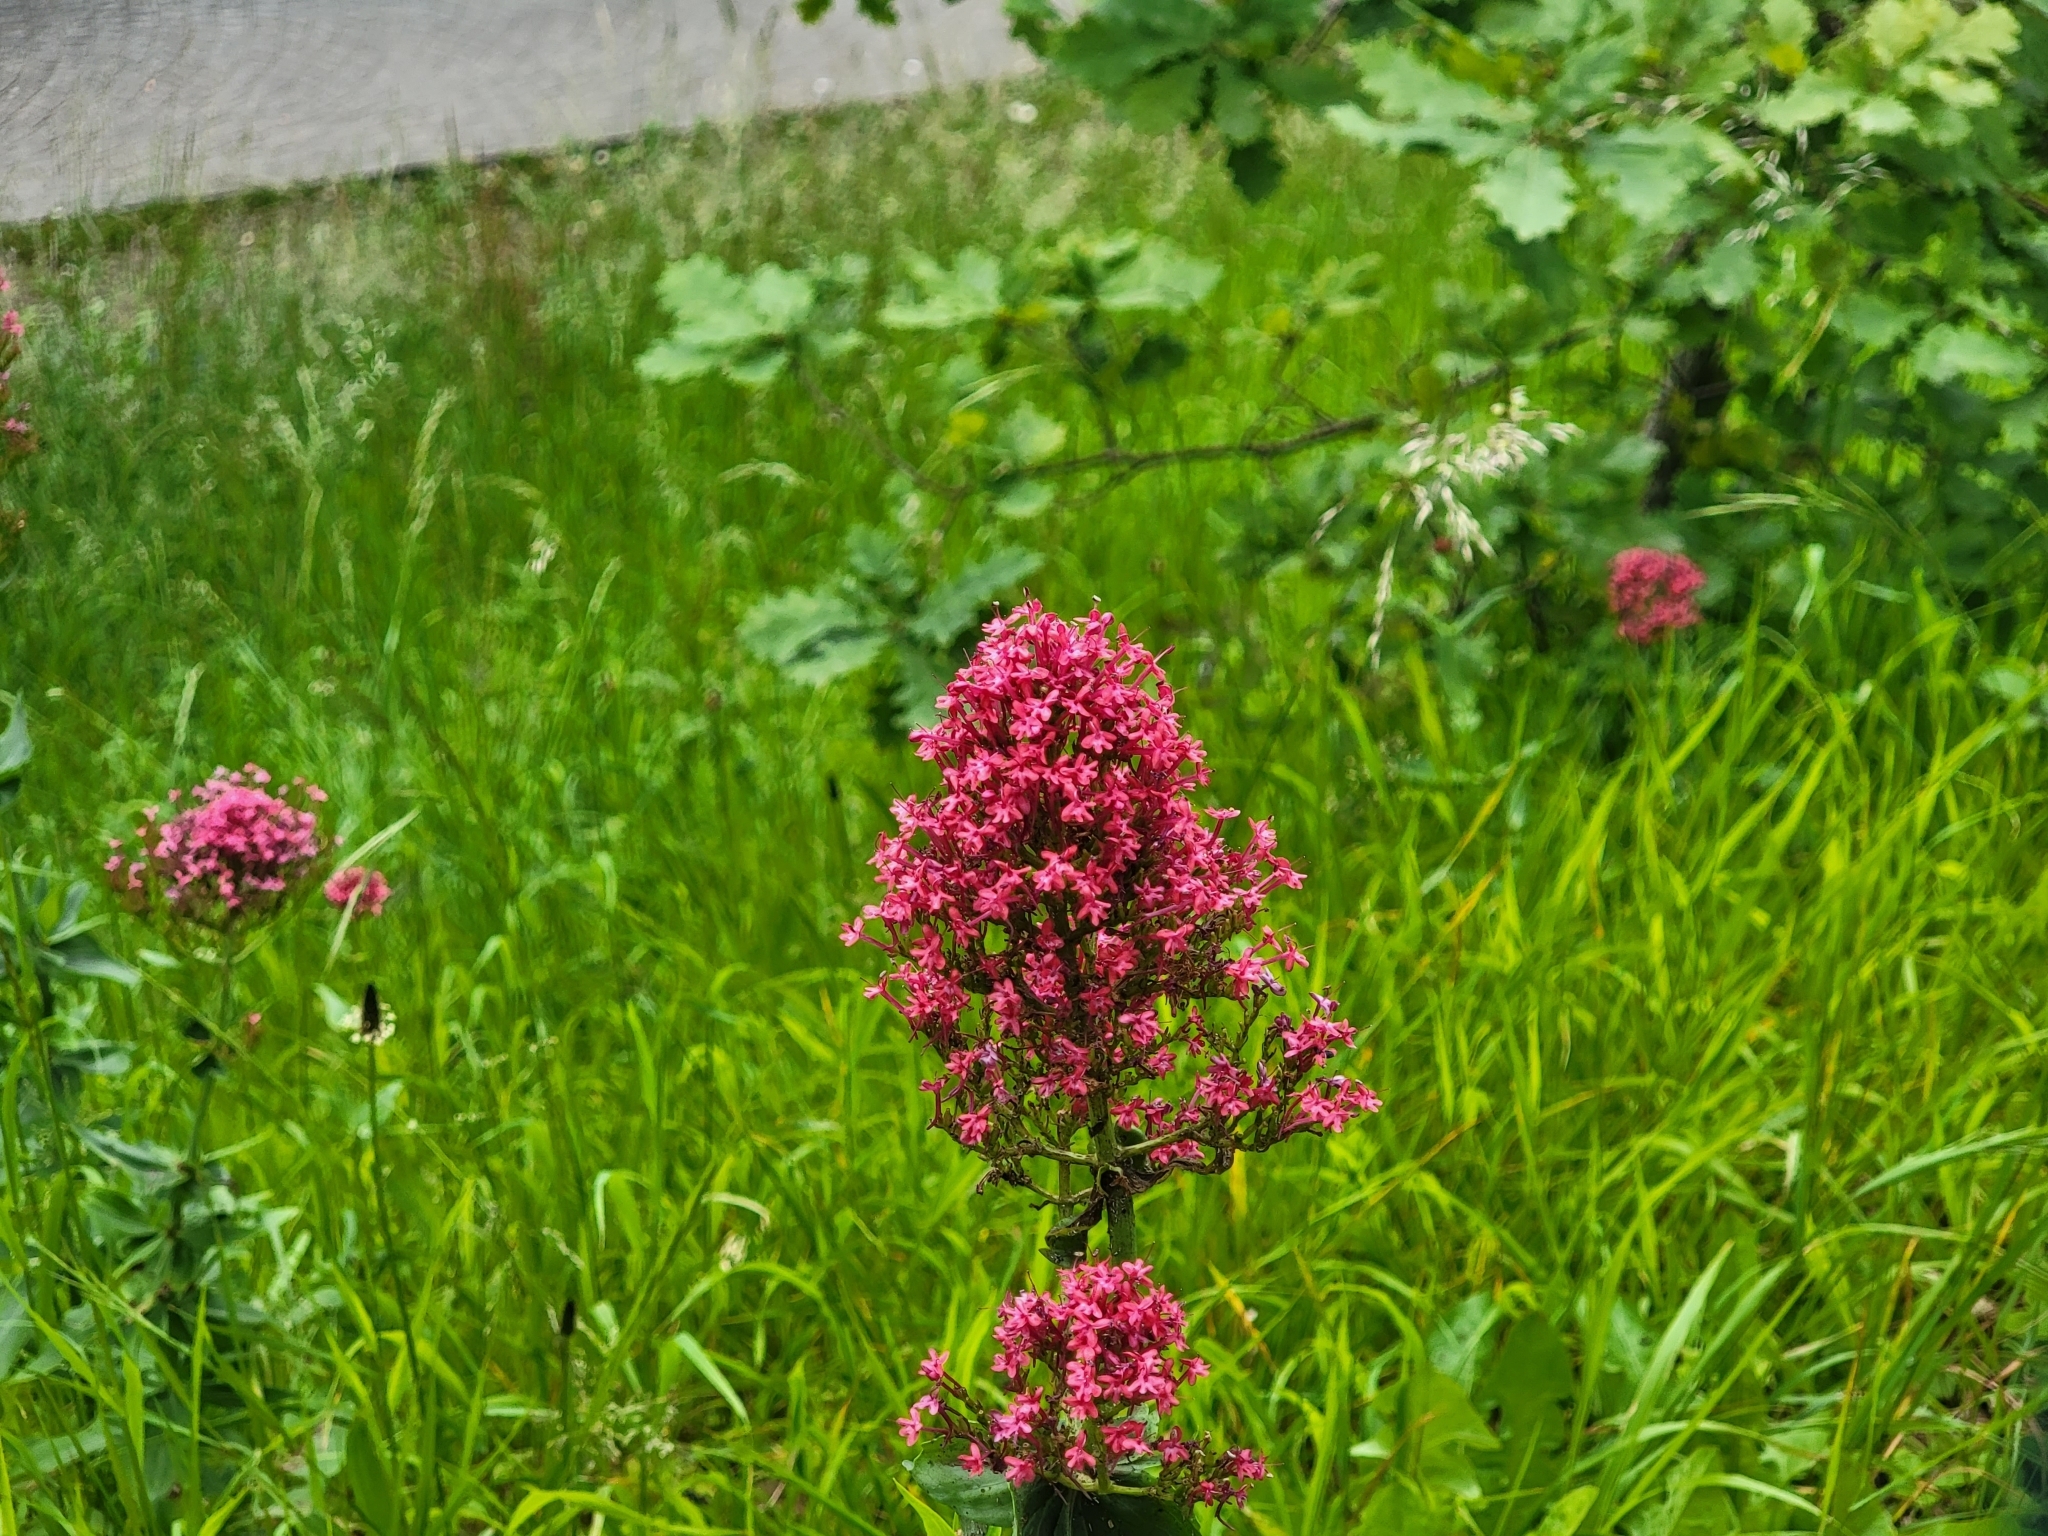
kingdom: Plantae
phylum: Tracheophyta
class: Magnoliopsida
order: Dipsacales
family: Caprifoliaceae
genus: Centranthus
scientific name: Centranthus ruber
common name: Red valerian
